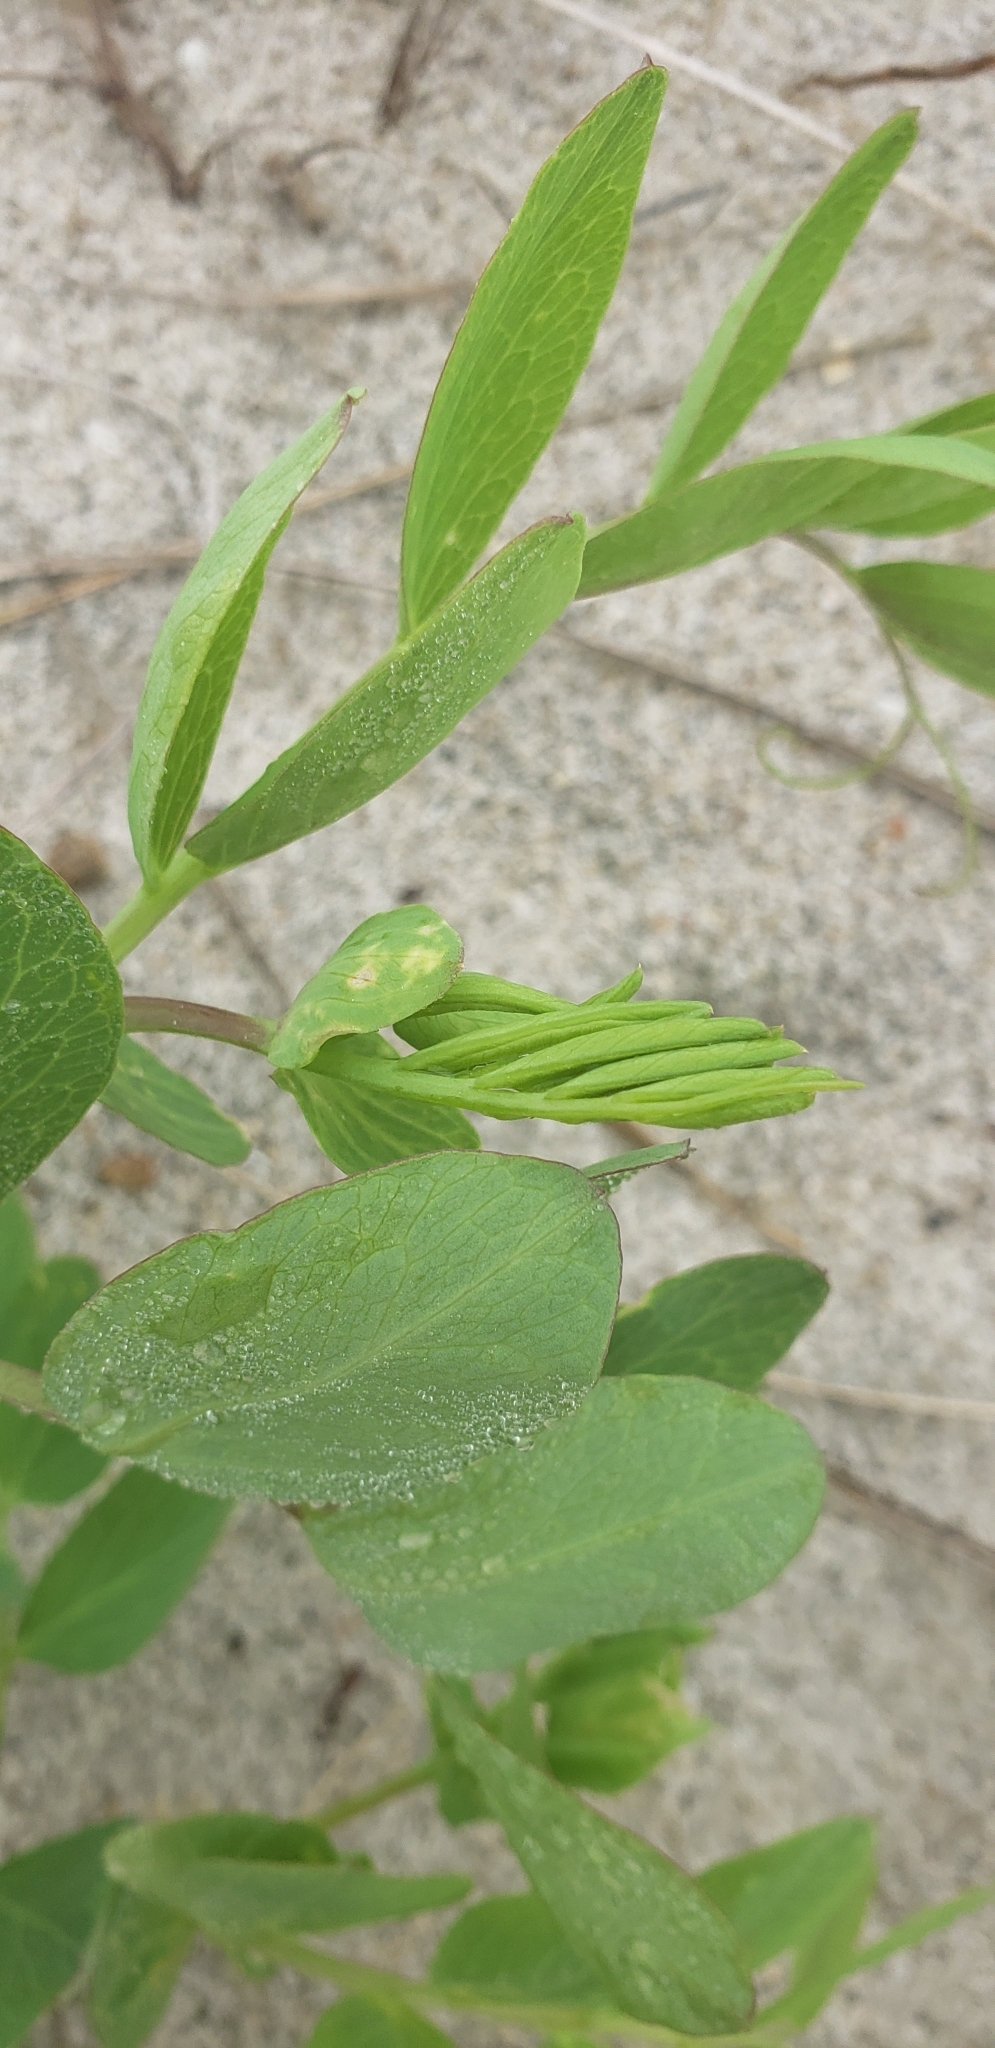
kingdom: Plantae
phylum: Tracheophyta
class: Magnoliopsida
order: Fabales
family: Fabaceae
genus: Lathyrus
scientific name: Lathyrus japonicus
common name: Sea pea
